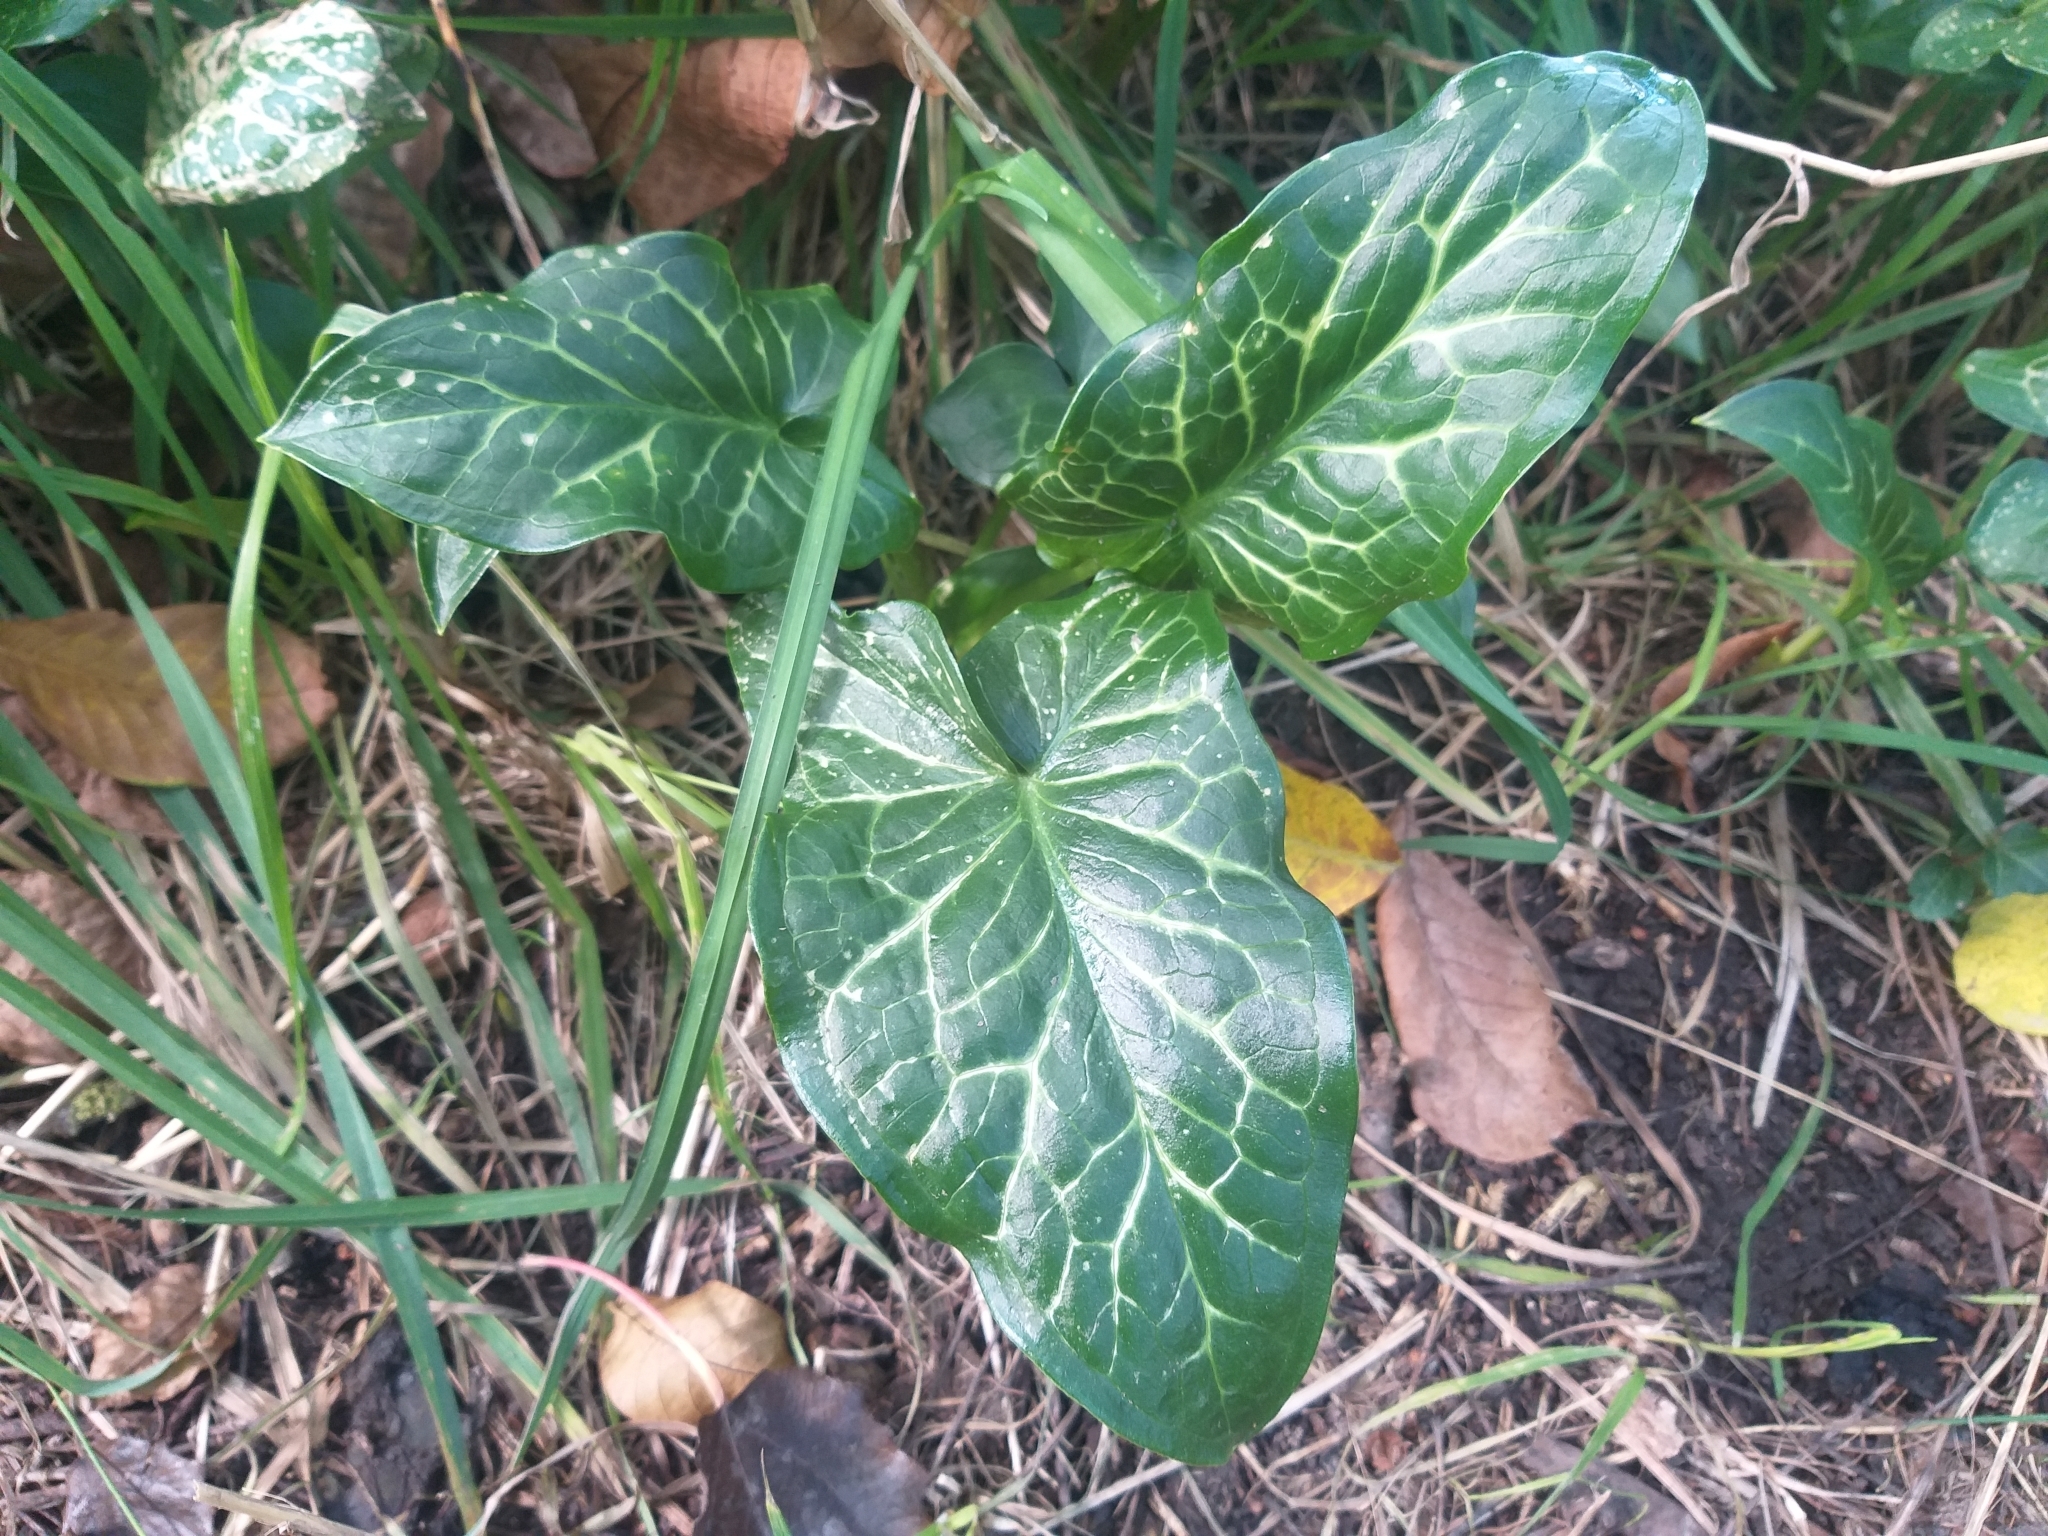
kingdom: Plantae
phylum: Tracheophyta
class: Liliopsida
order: Alismatales
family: Araceae
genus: Arum
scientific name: Arum italicum
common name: Italian lords-and-ladies
